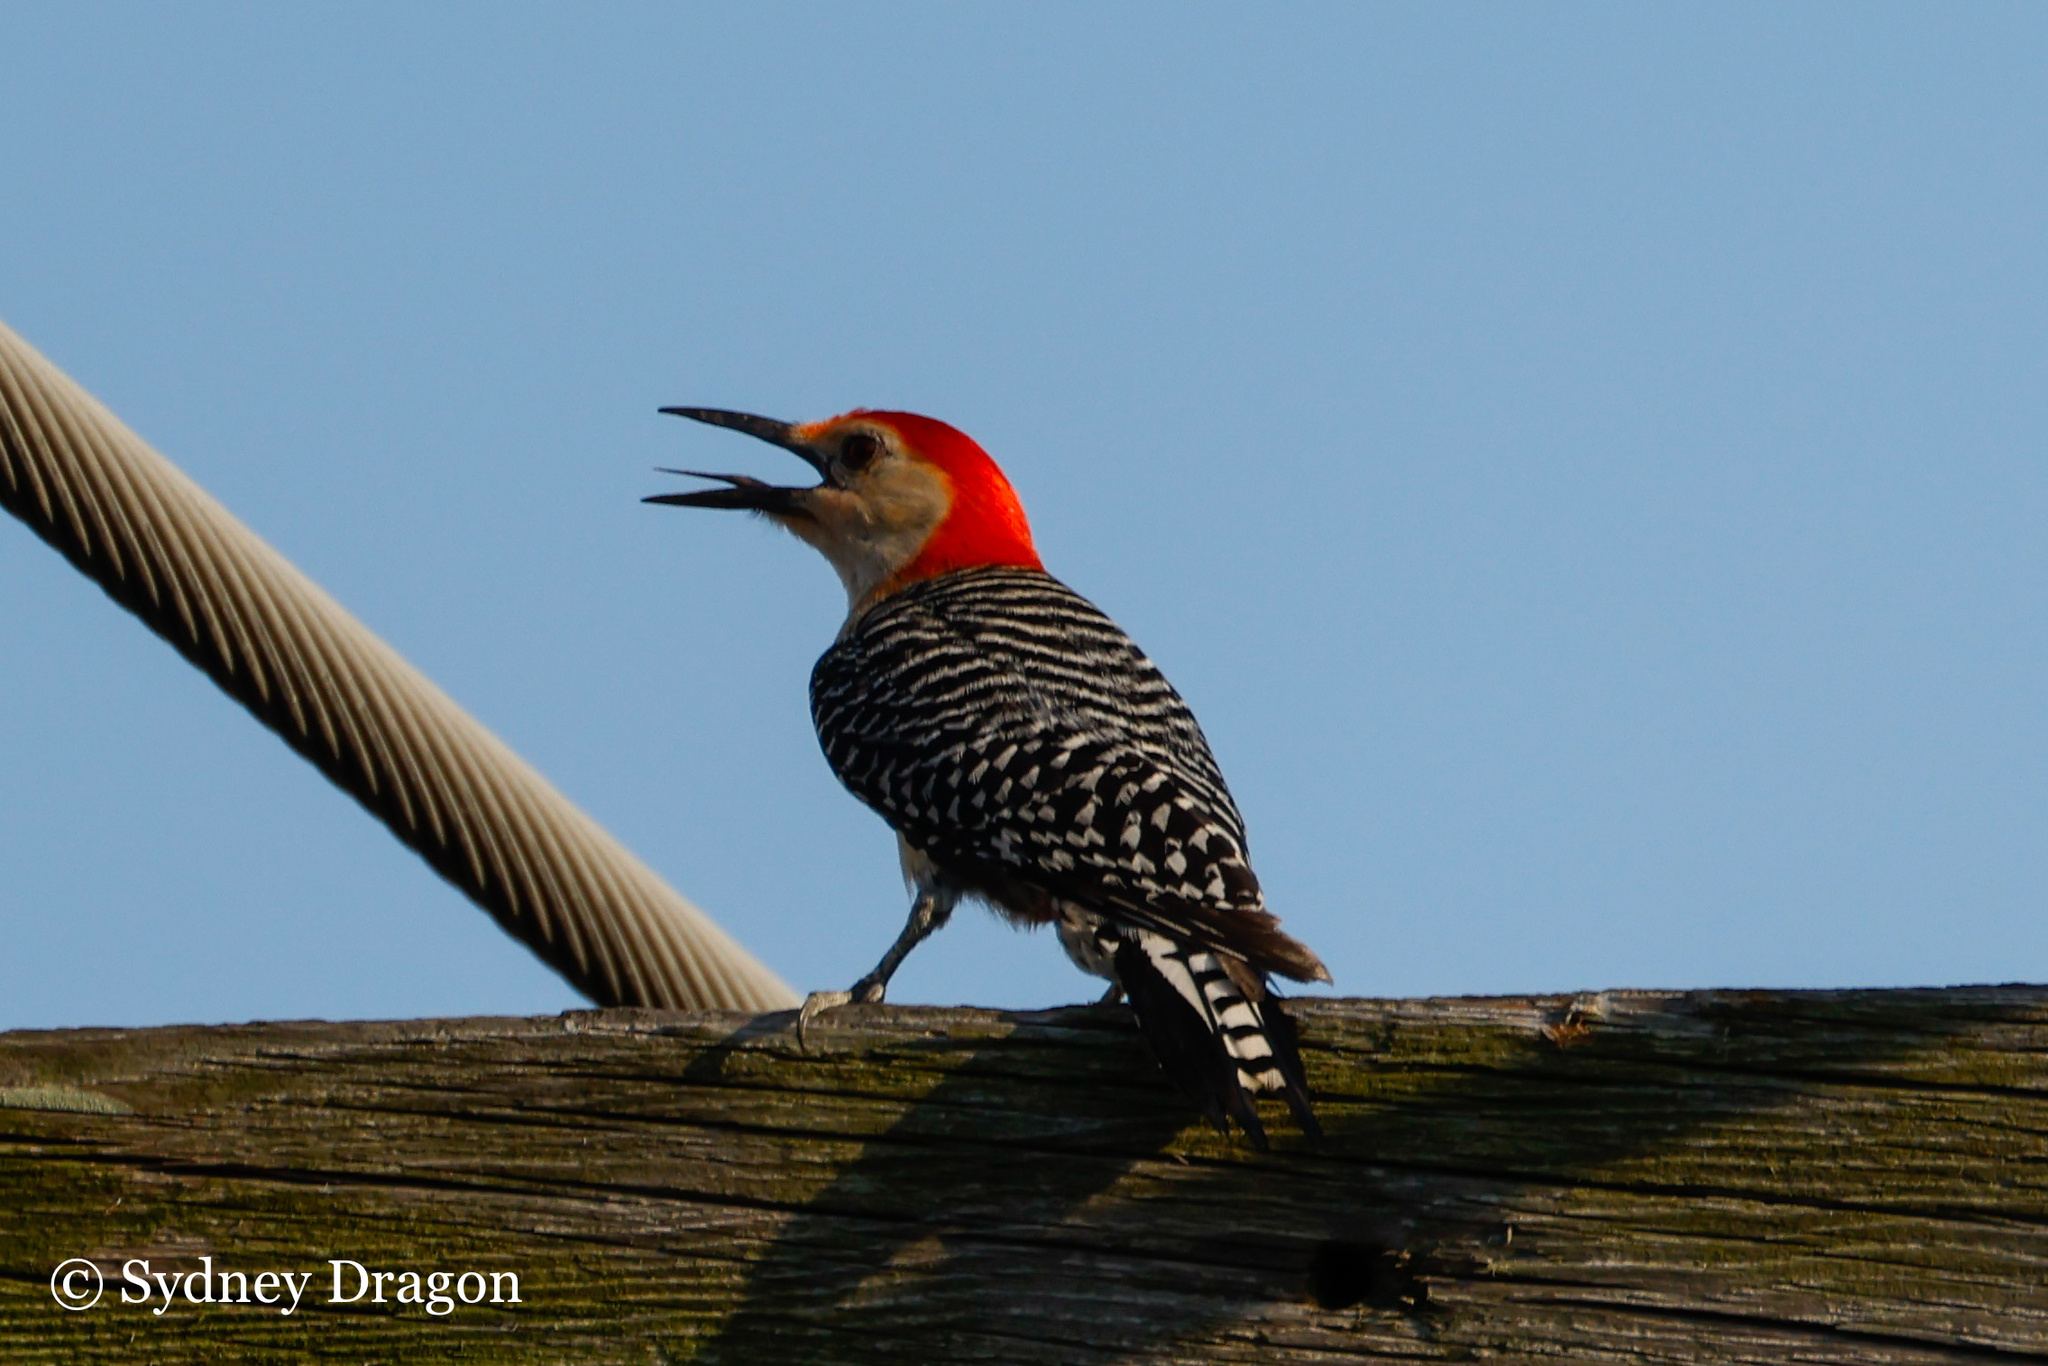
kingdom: Animalia
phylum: Chordata
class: Aves
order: Piciformes
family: Picidae
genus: Melanerpes
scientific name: Melanerpes carolinus
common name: Red-bellied woodpecker
